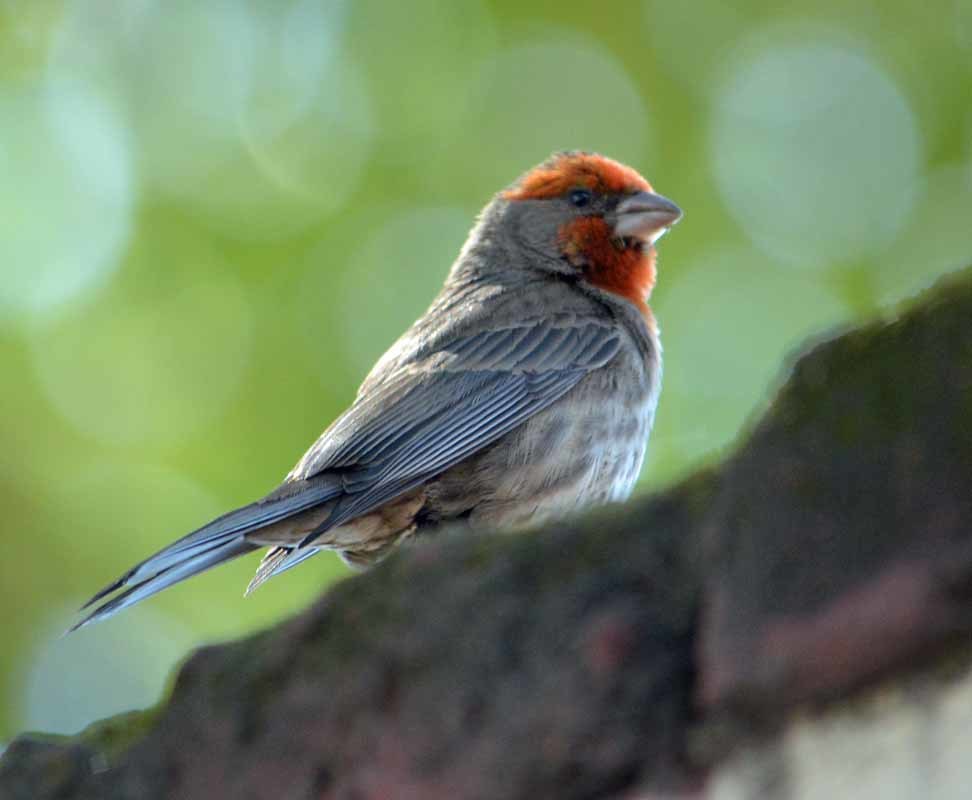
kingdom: Animalia
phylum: Chordata
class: Aves
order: Passeriformes
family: Fringillidae
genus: Haemorhous
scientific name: Haemorhous mexicanus
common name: House finch
